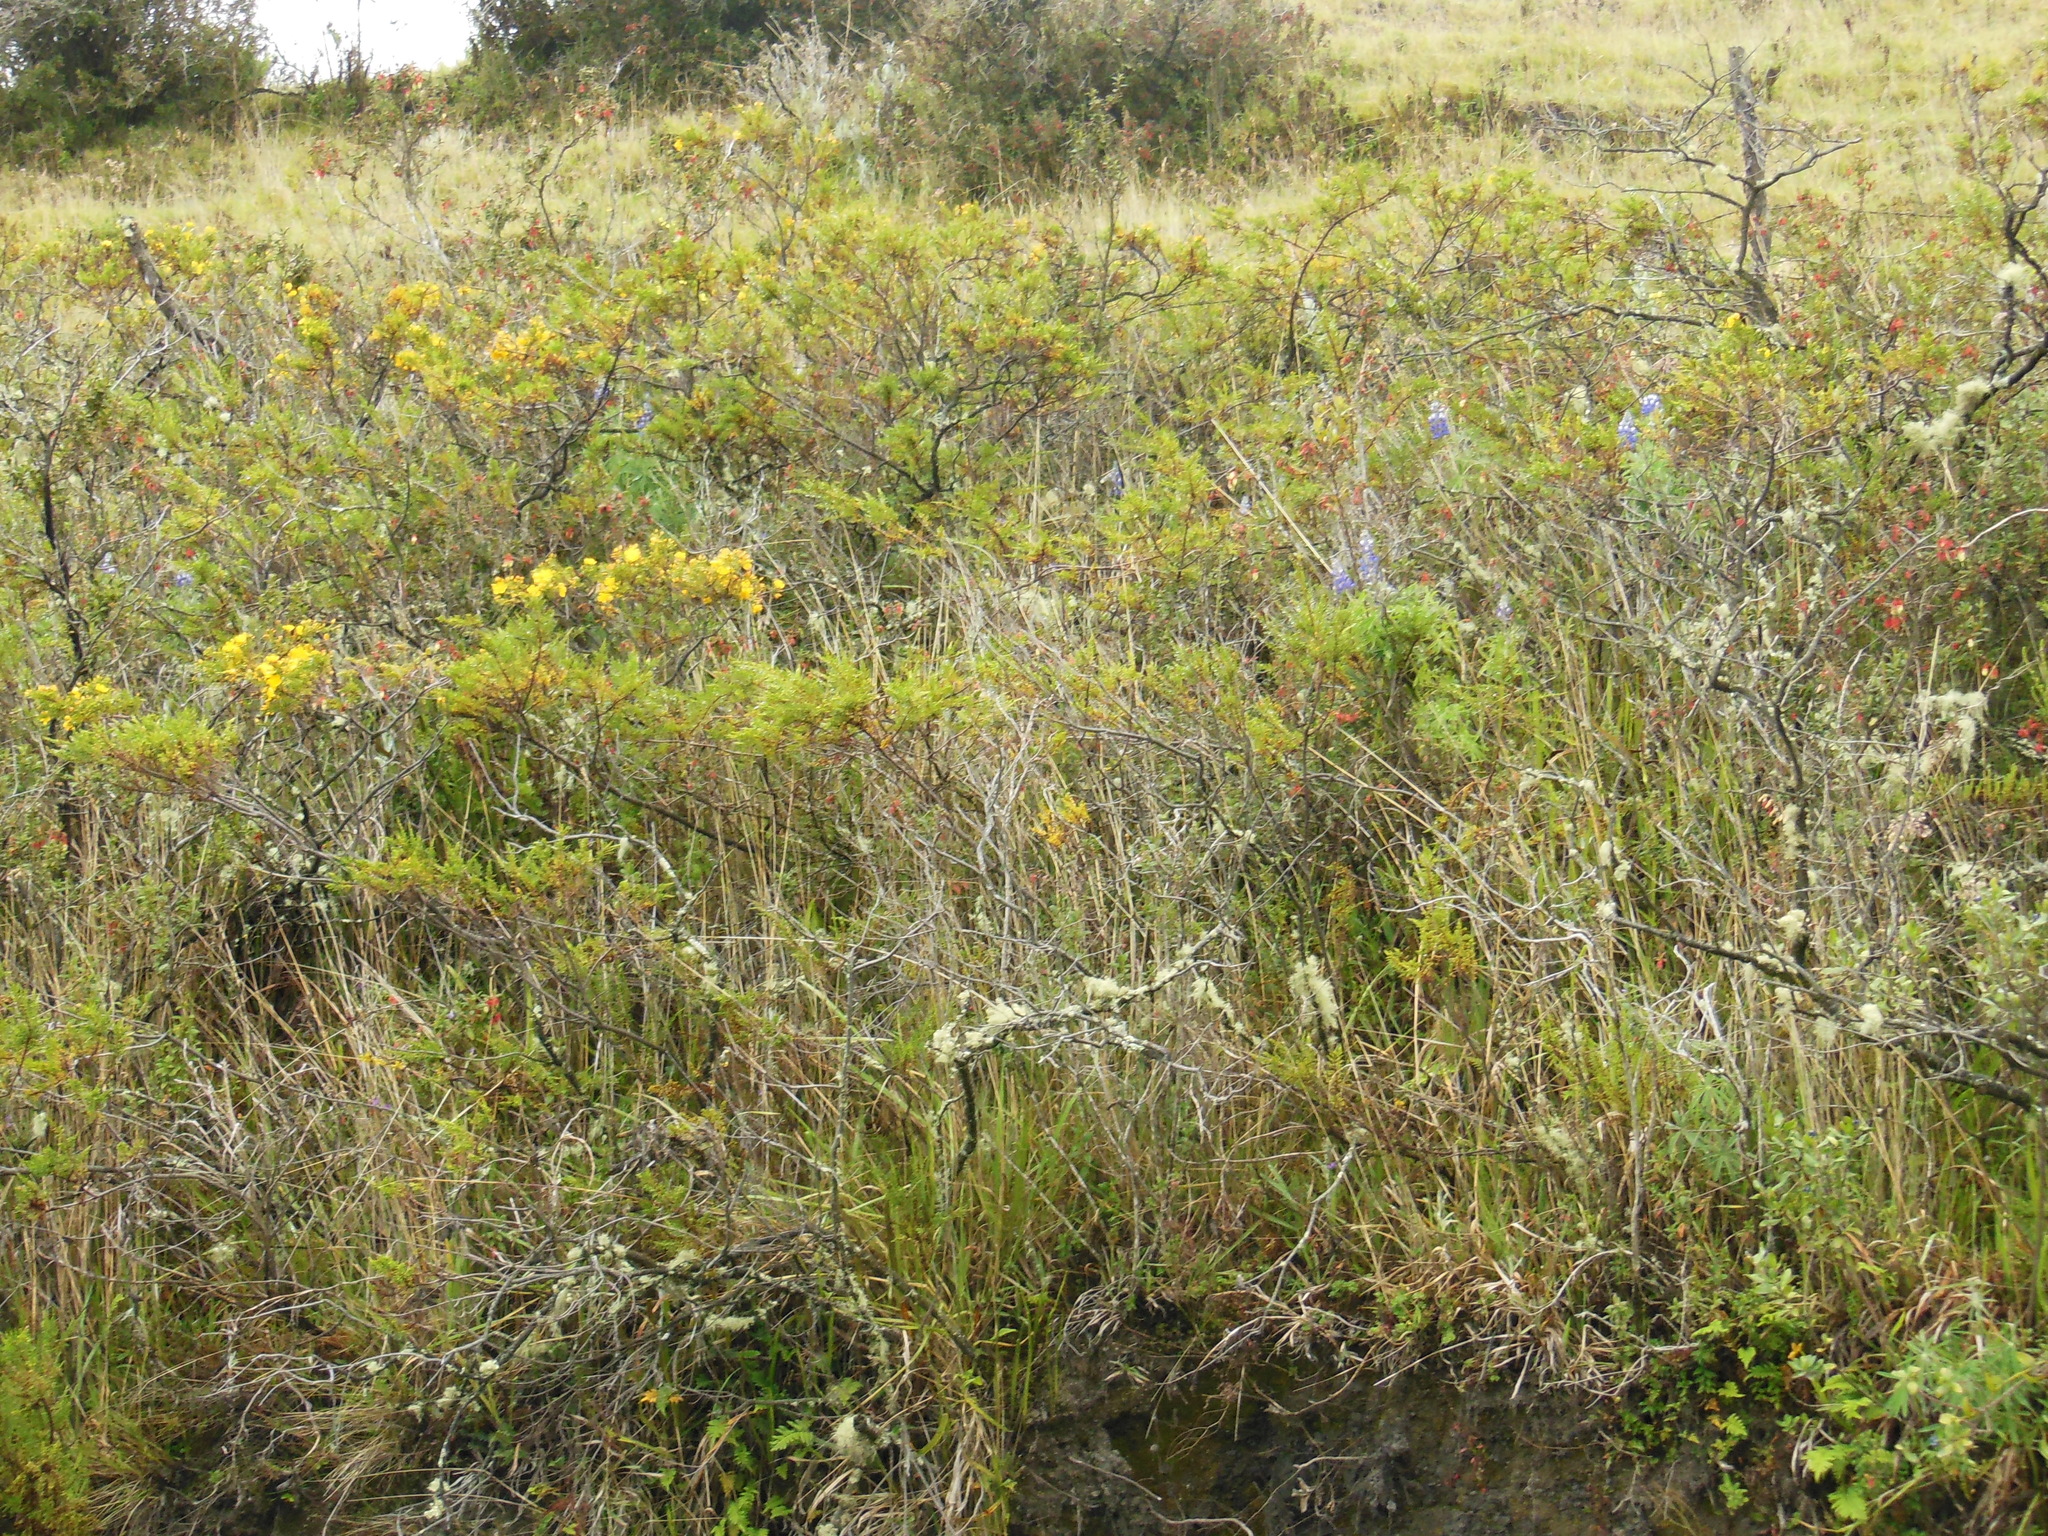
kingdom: Plantae
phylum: Tracheophyta
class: Magnoliopsida
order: Malpighiales
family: Hypericaceae
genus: Hypericum
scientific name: Hypericum laricifolium
